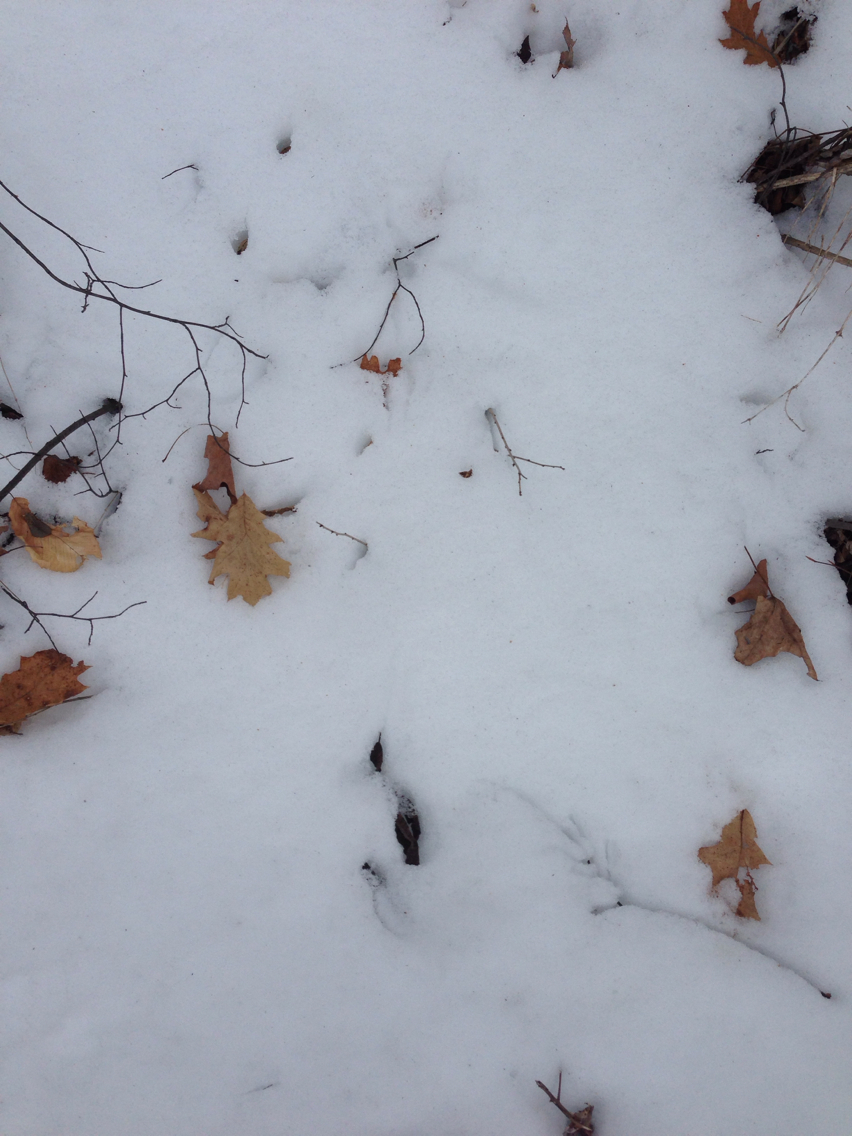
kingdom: Plantae
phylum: Tracheophyta
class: Magnoliopsida
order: Fagales
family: Fagaceae
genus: Quercus
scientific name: Quercus rubra
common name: Red oak
